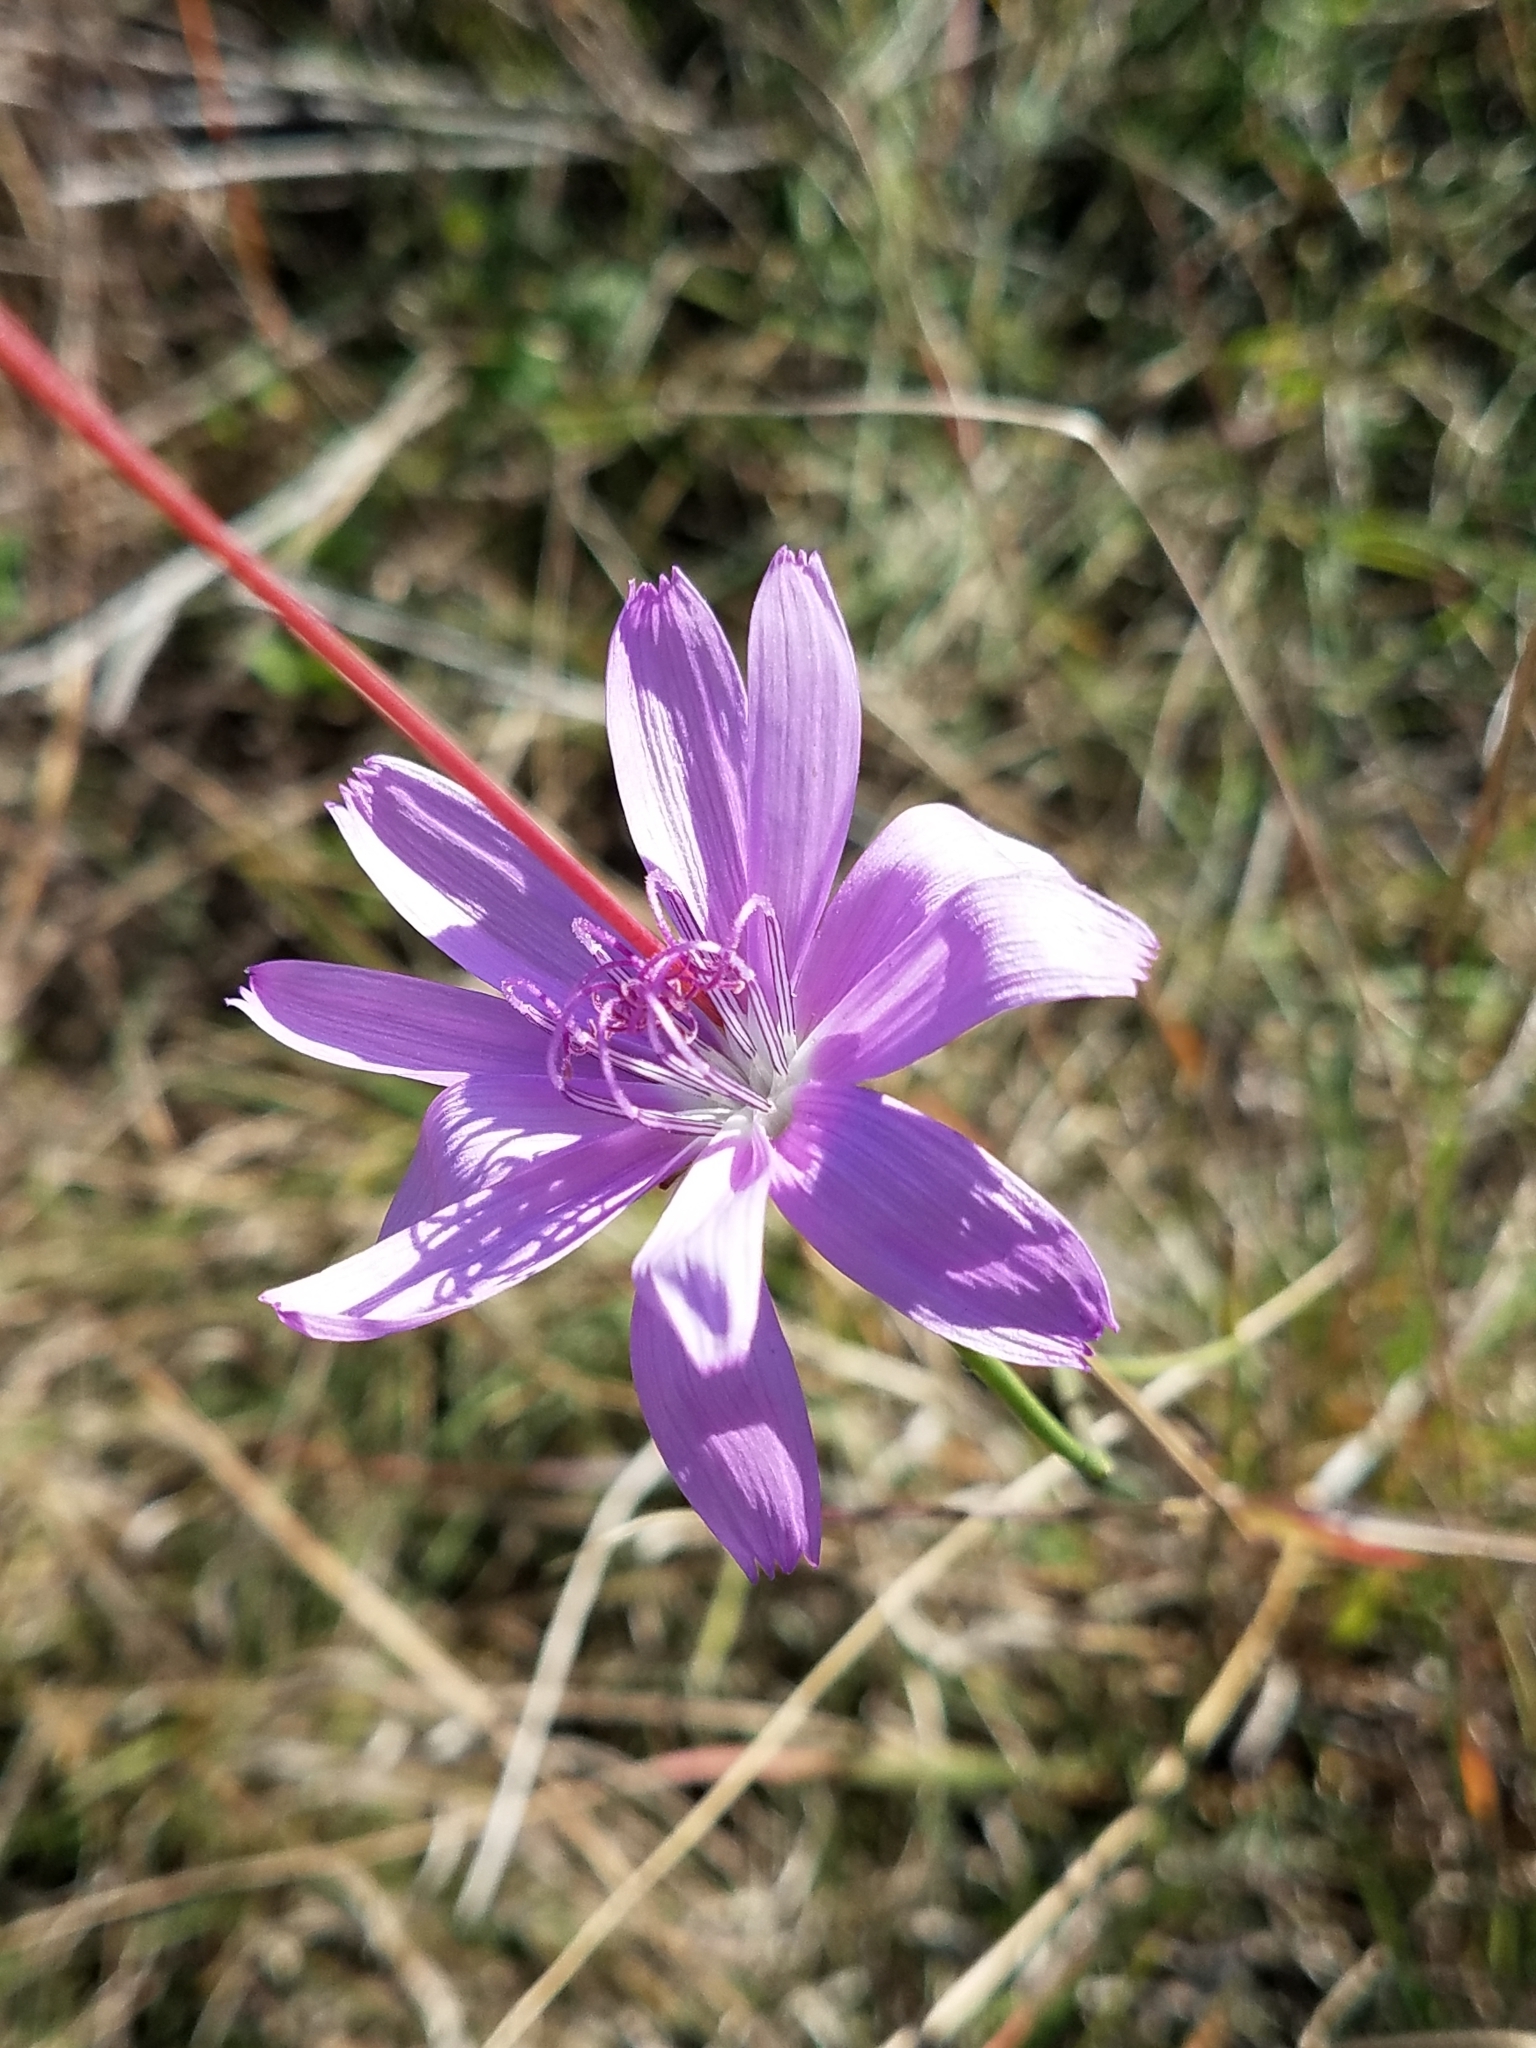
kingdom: Plantae
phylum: Tracheophyta
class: Magnoliopsida
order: Asterales
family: Asteraceae
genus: Lygodesmia
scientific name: Lygodesmia texana
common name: Texas skeleton-plant
